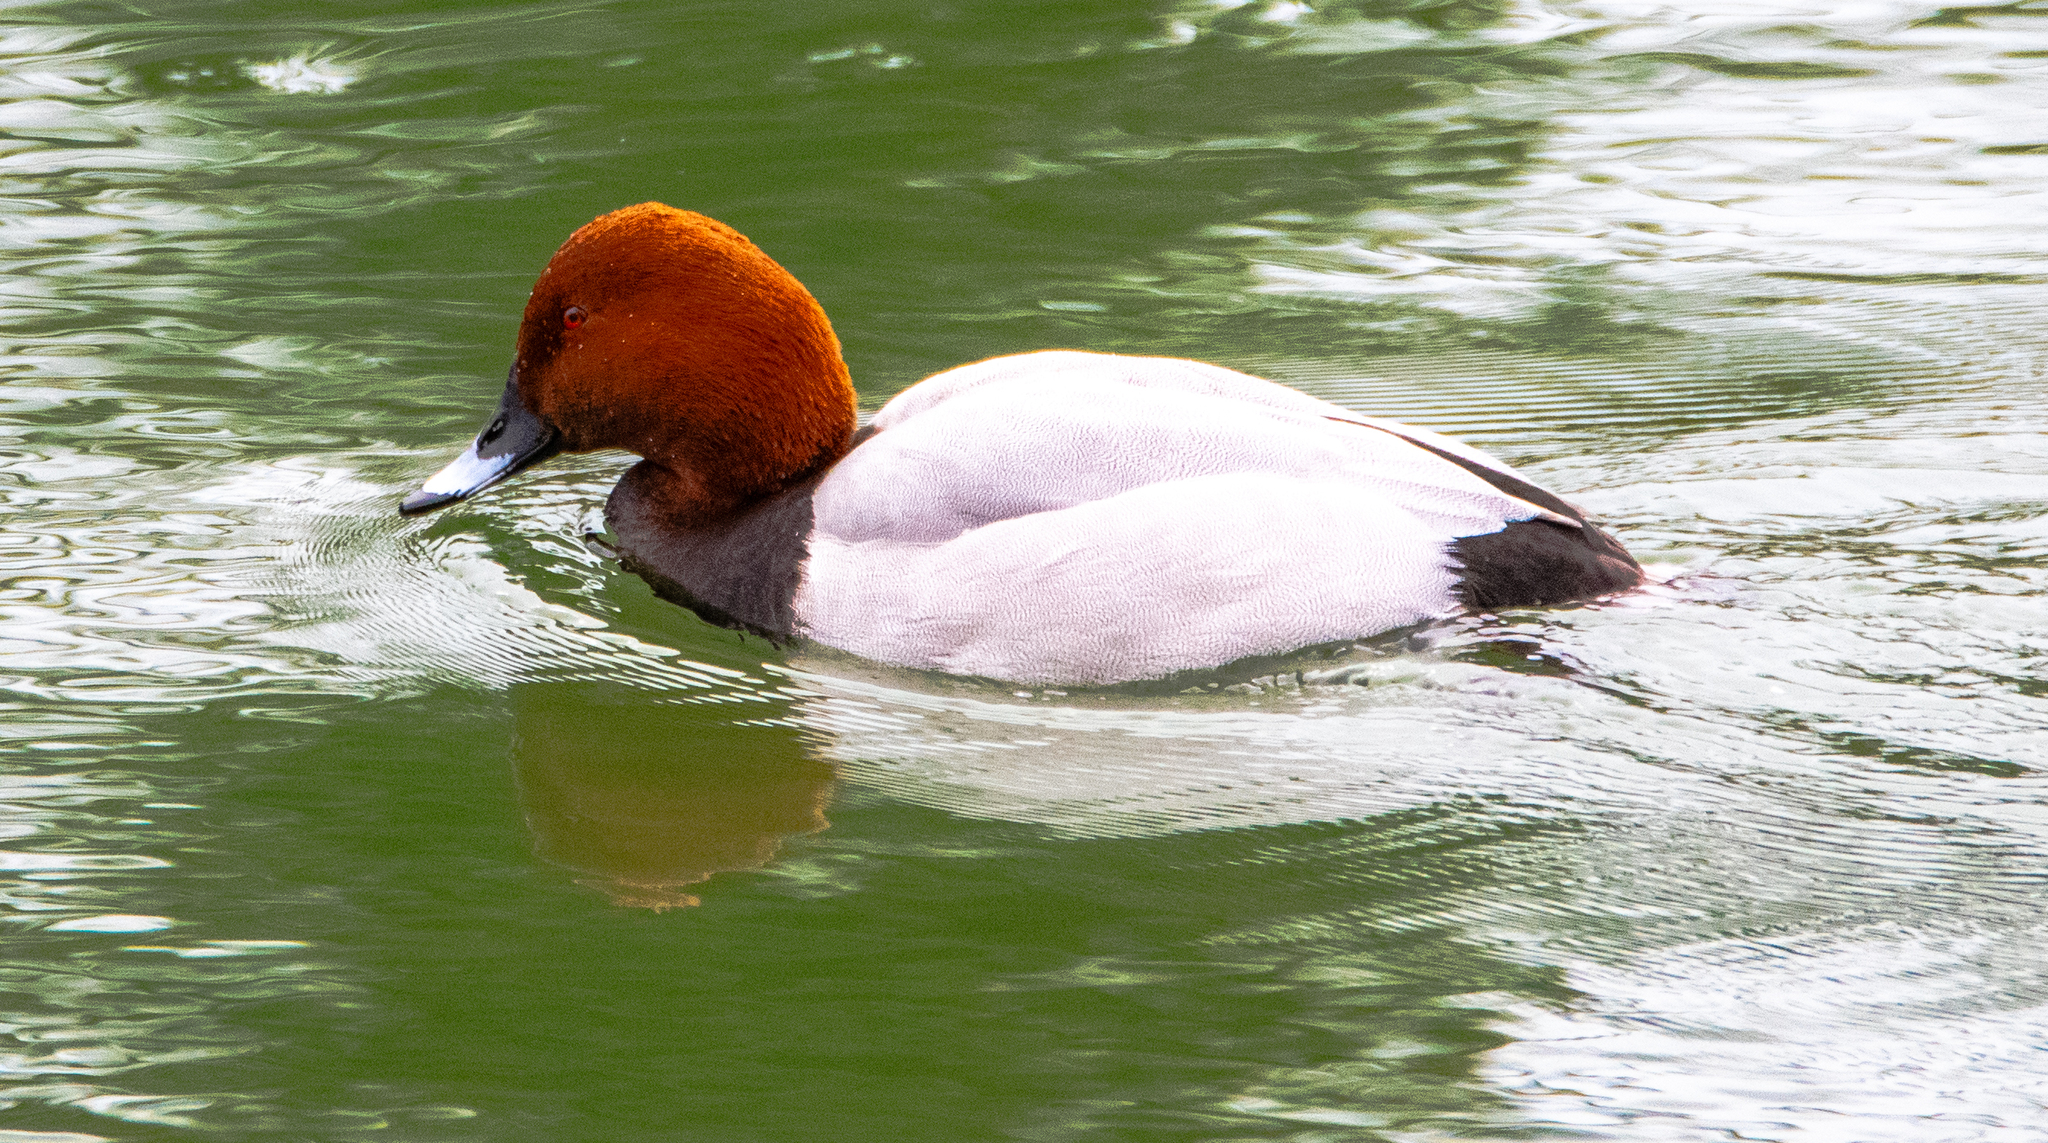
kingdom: Animalia
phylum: Chordata
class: Aves
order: Anseriformes
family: Anatidae
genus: Aythya
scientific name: Aythya ferina
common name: Common pochard
